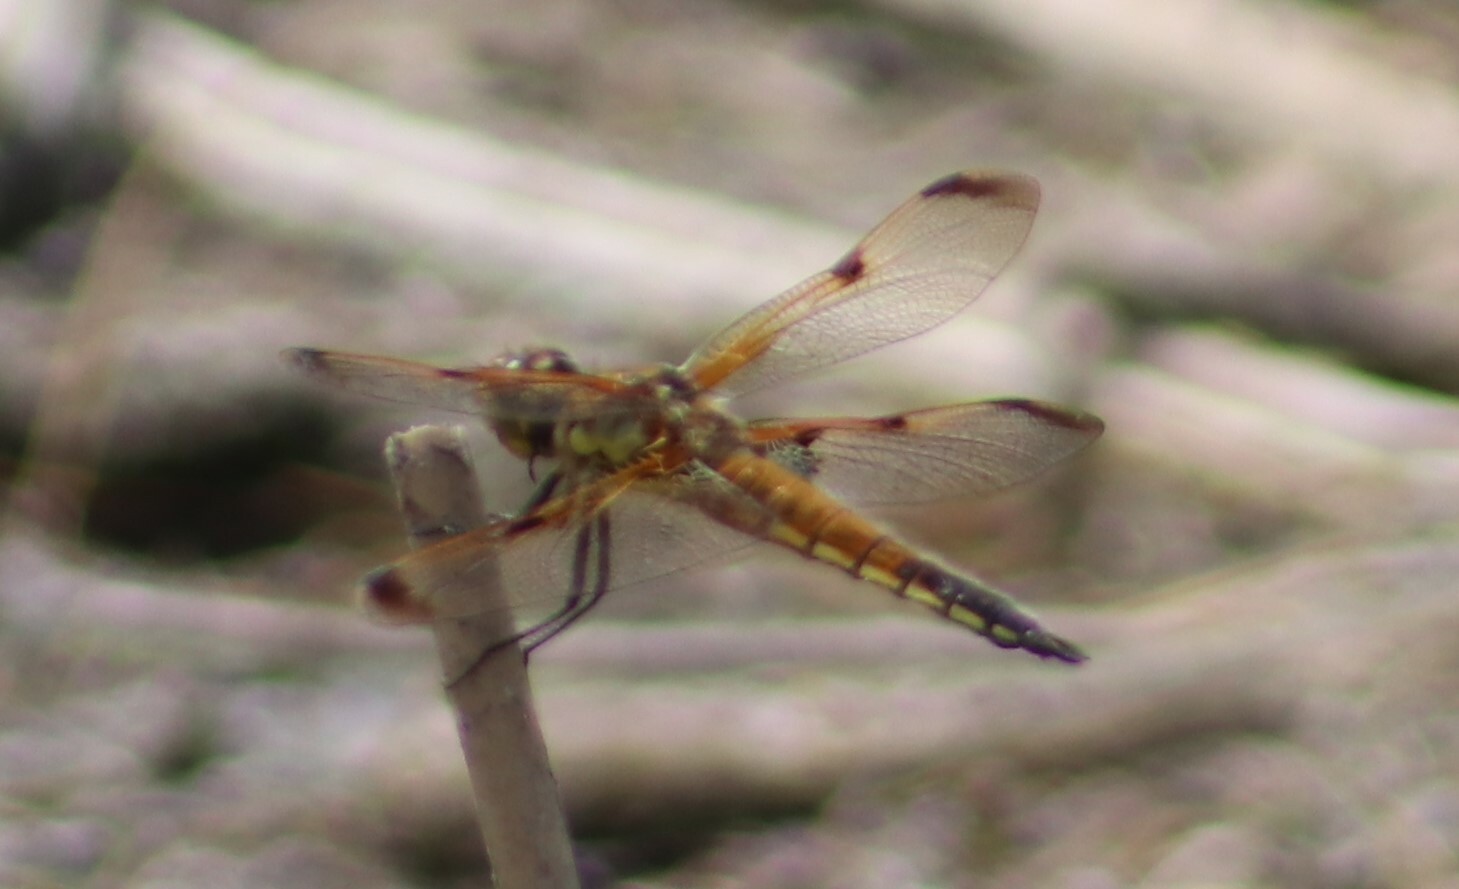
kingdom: Animalia
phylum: Arthropoda
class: Insecta
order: Odonata
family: Libellulidae
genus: Libellula
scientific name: Libellula quadrimaculata
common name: Four-spotted chaser
